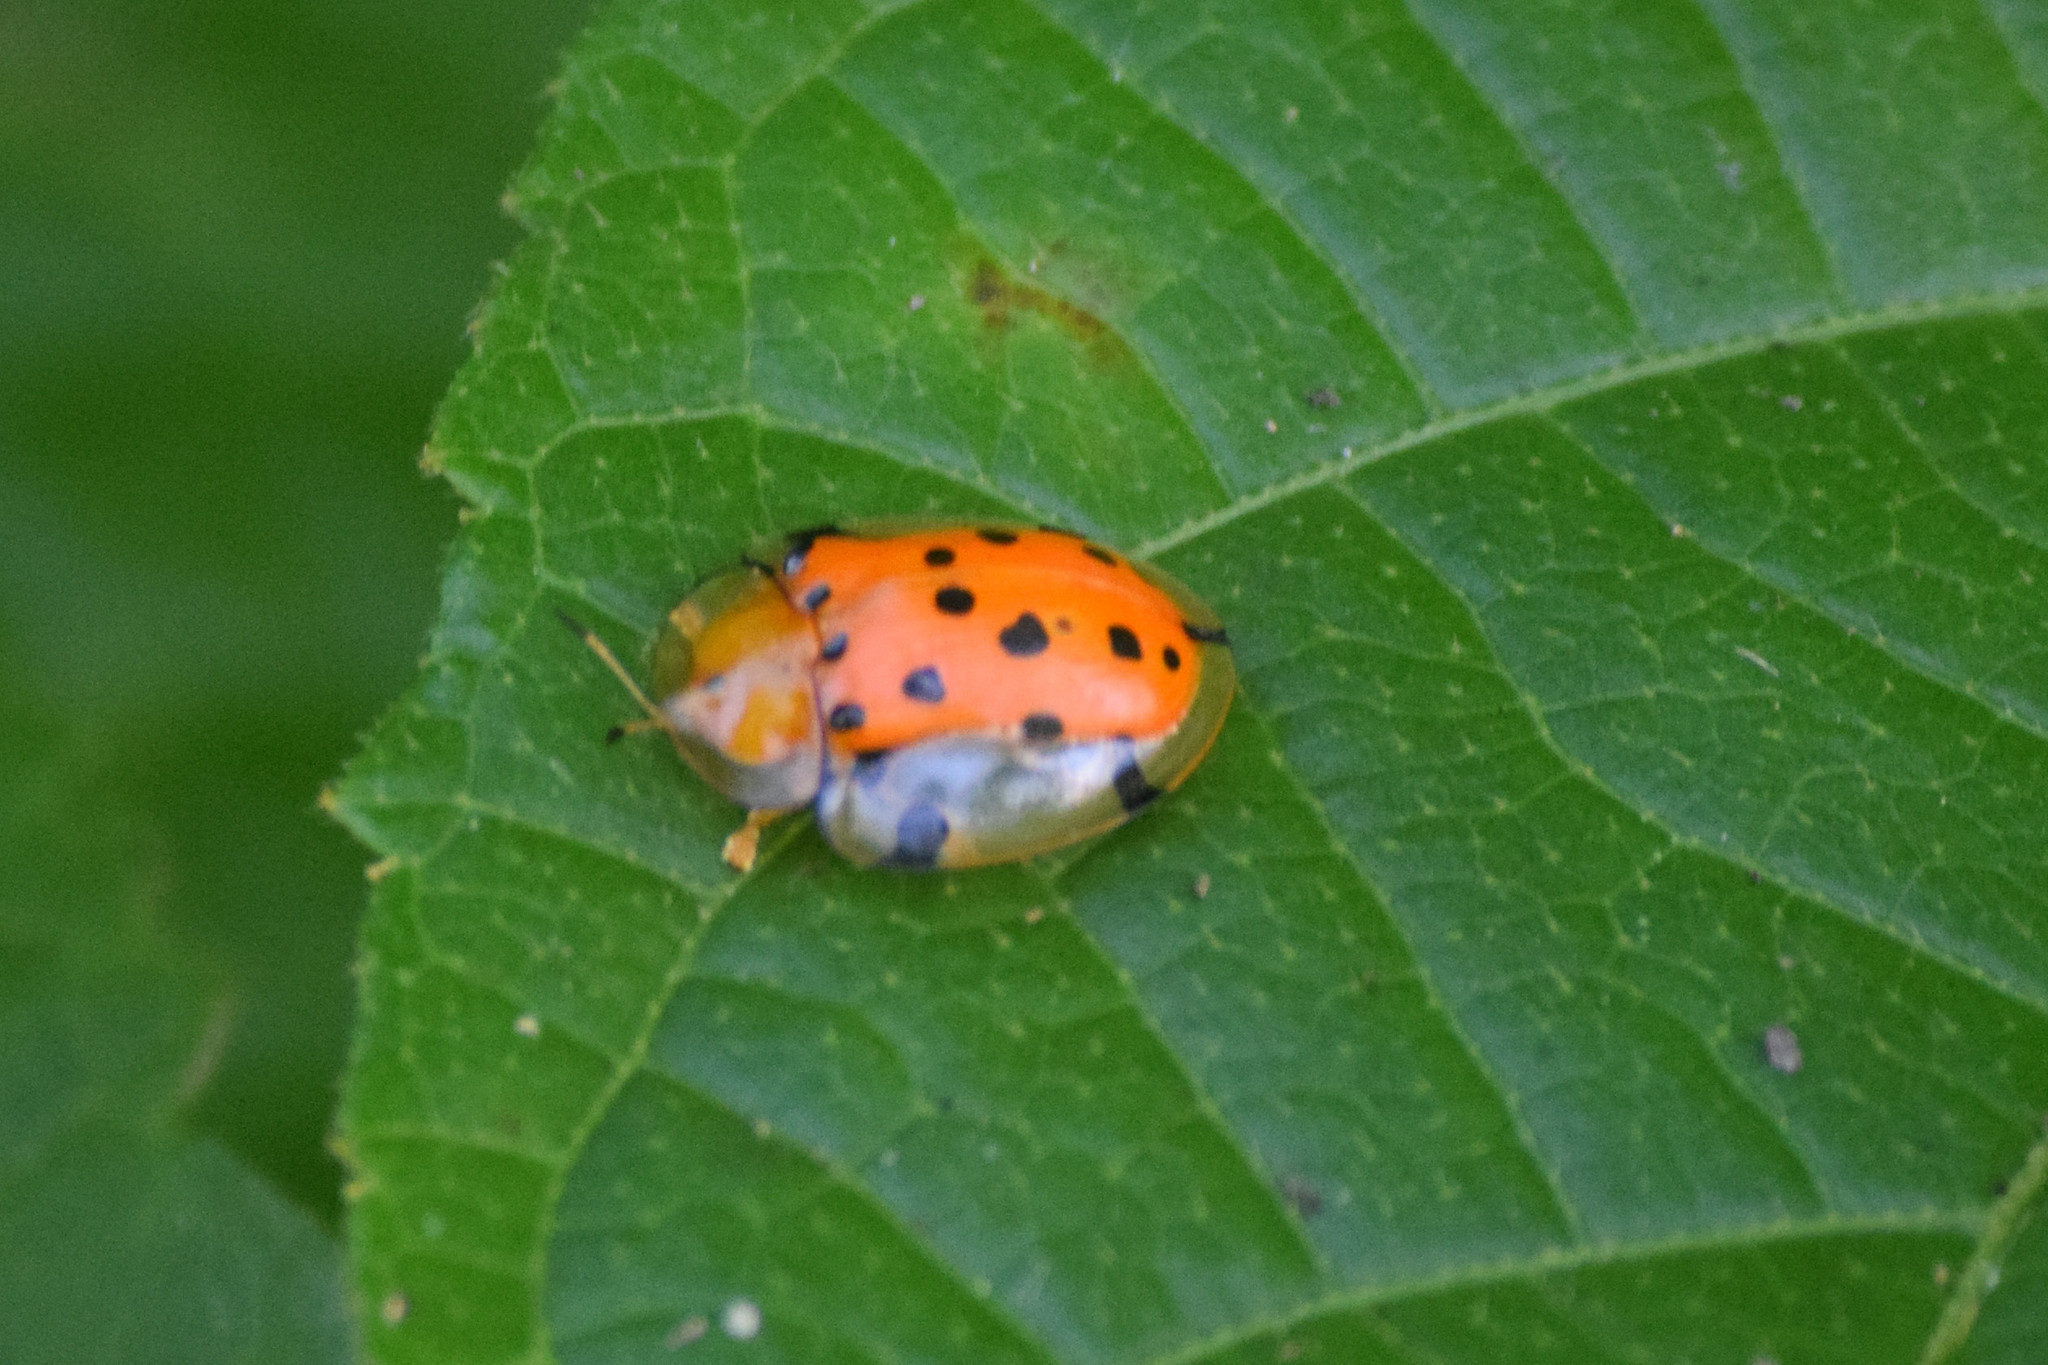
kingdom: Animalia
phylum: Arthropoda
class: Insecta
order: Coleoptera
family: Chrysomelidae
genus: Aspidimorpha
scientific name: Aspidimorpha miliaris
